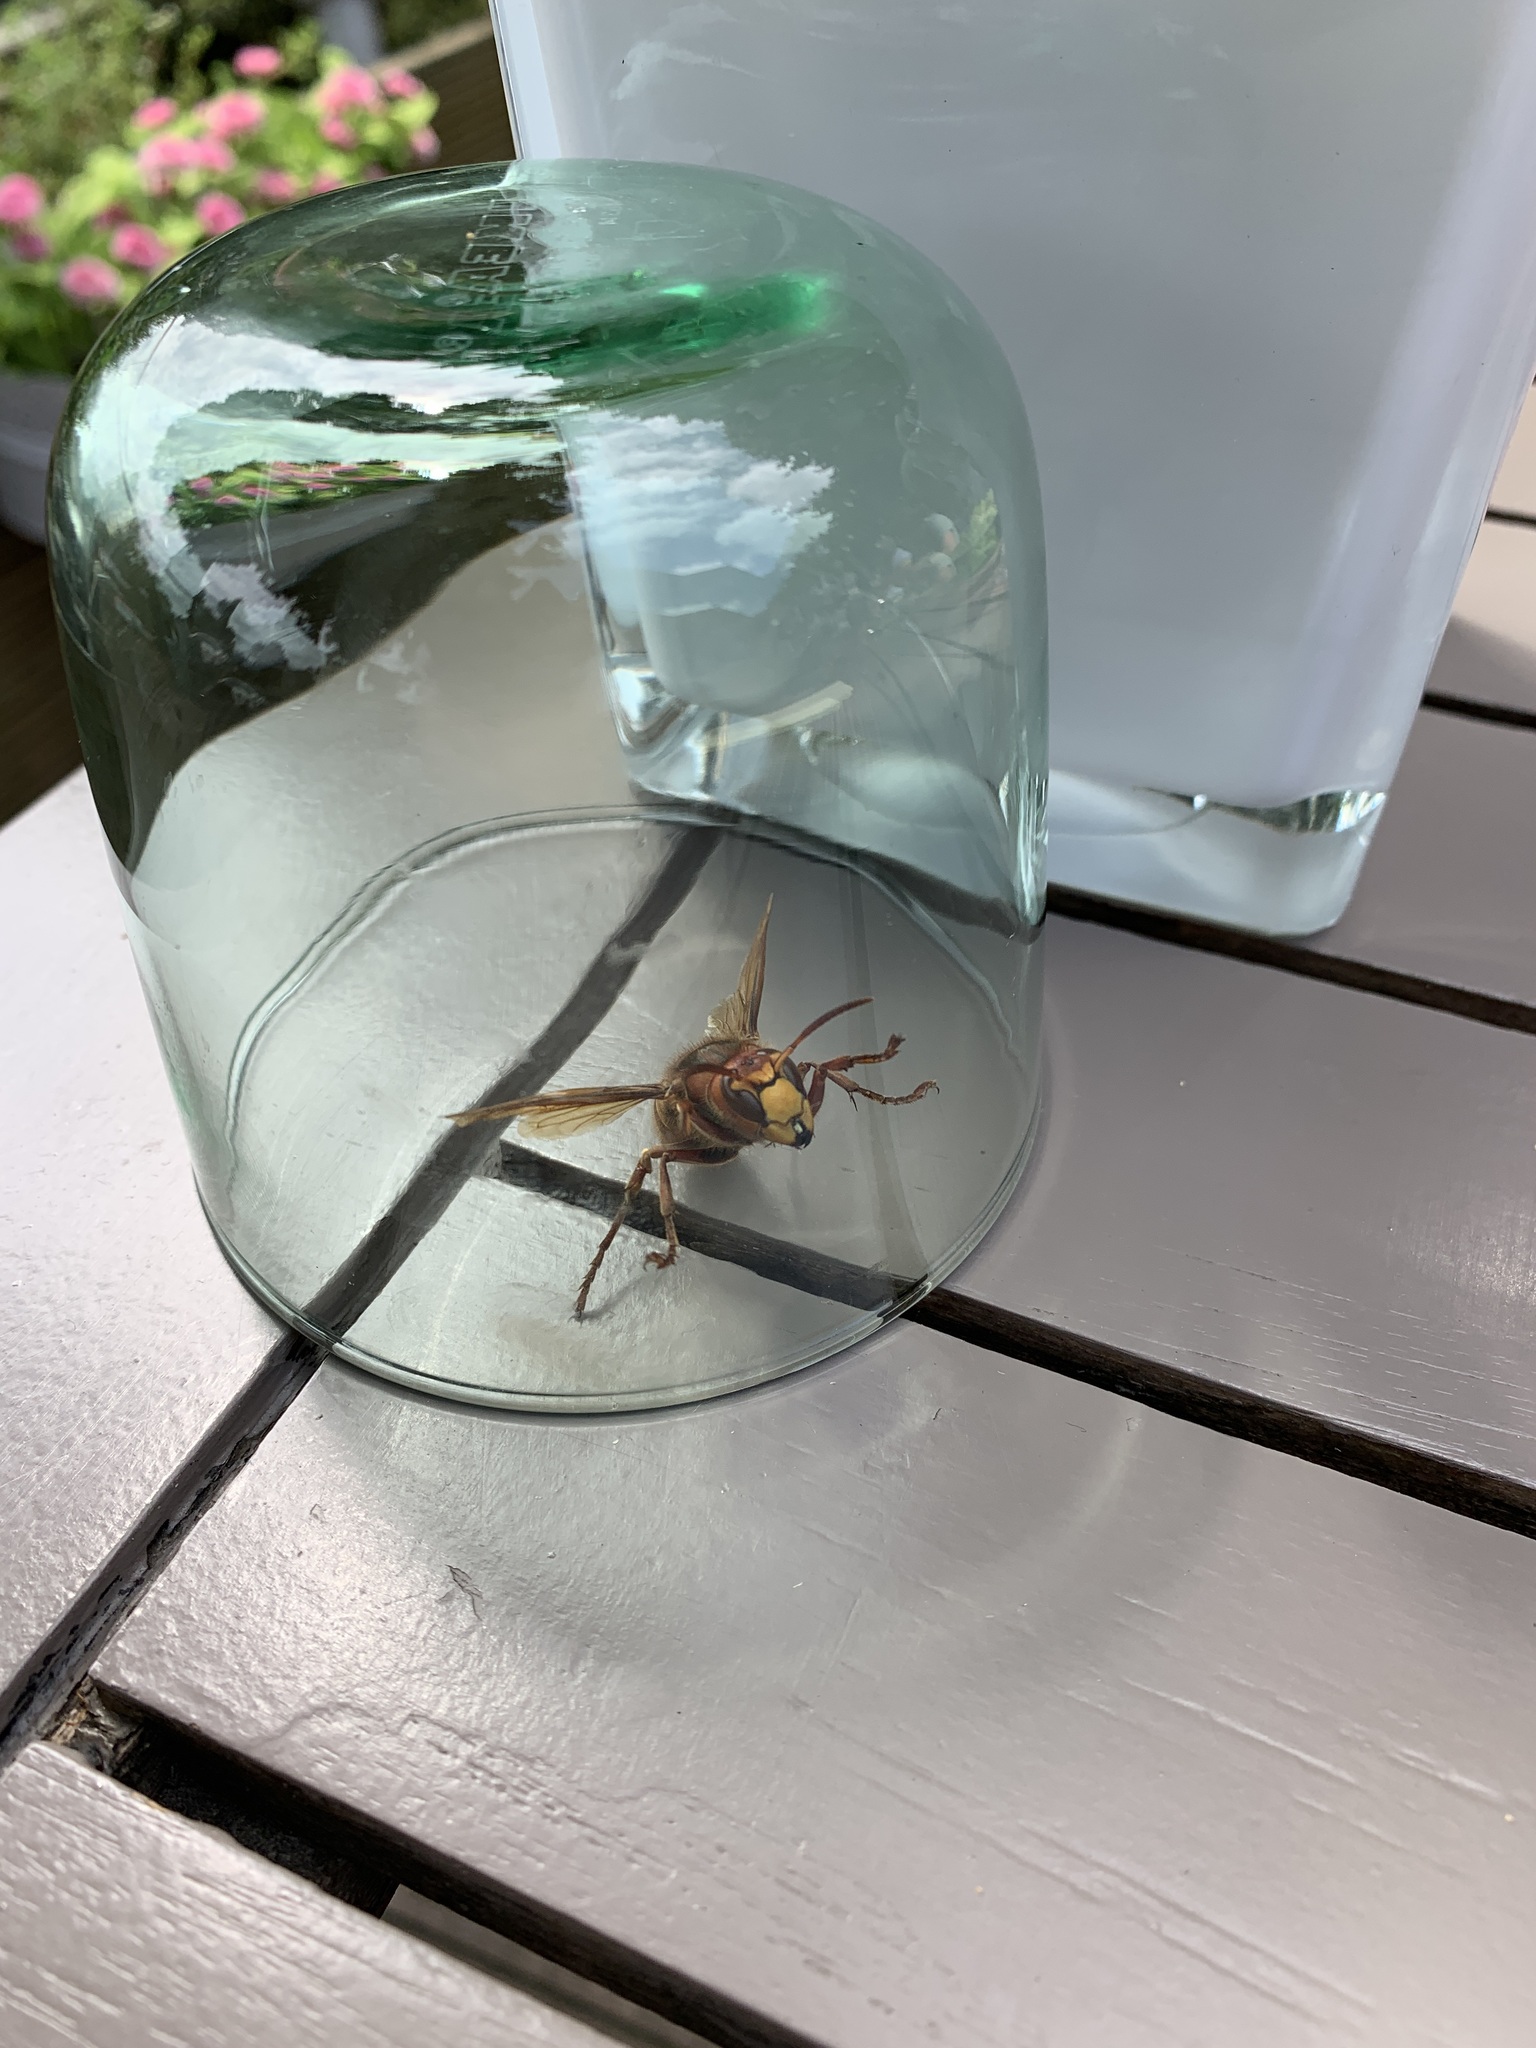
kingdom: Animalia
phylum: Arthropoda
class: Insecta
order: Hymenoptera
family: Vespidae
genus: Vespa
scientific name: Vespa crabro
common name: Hornet
